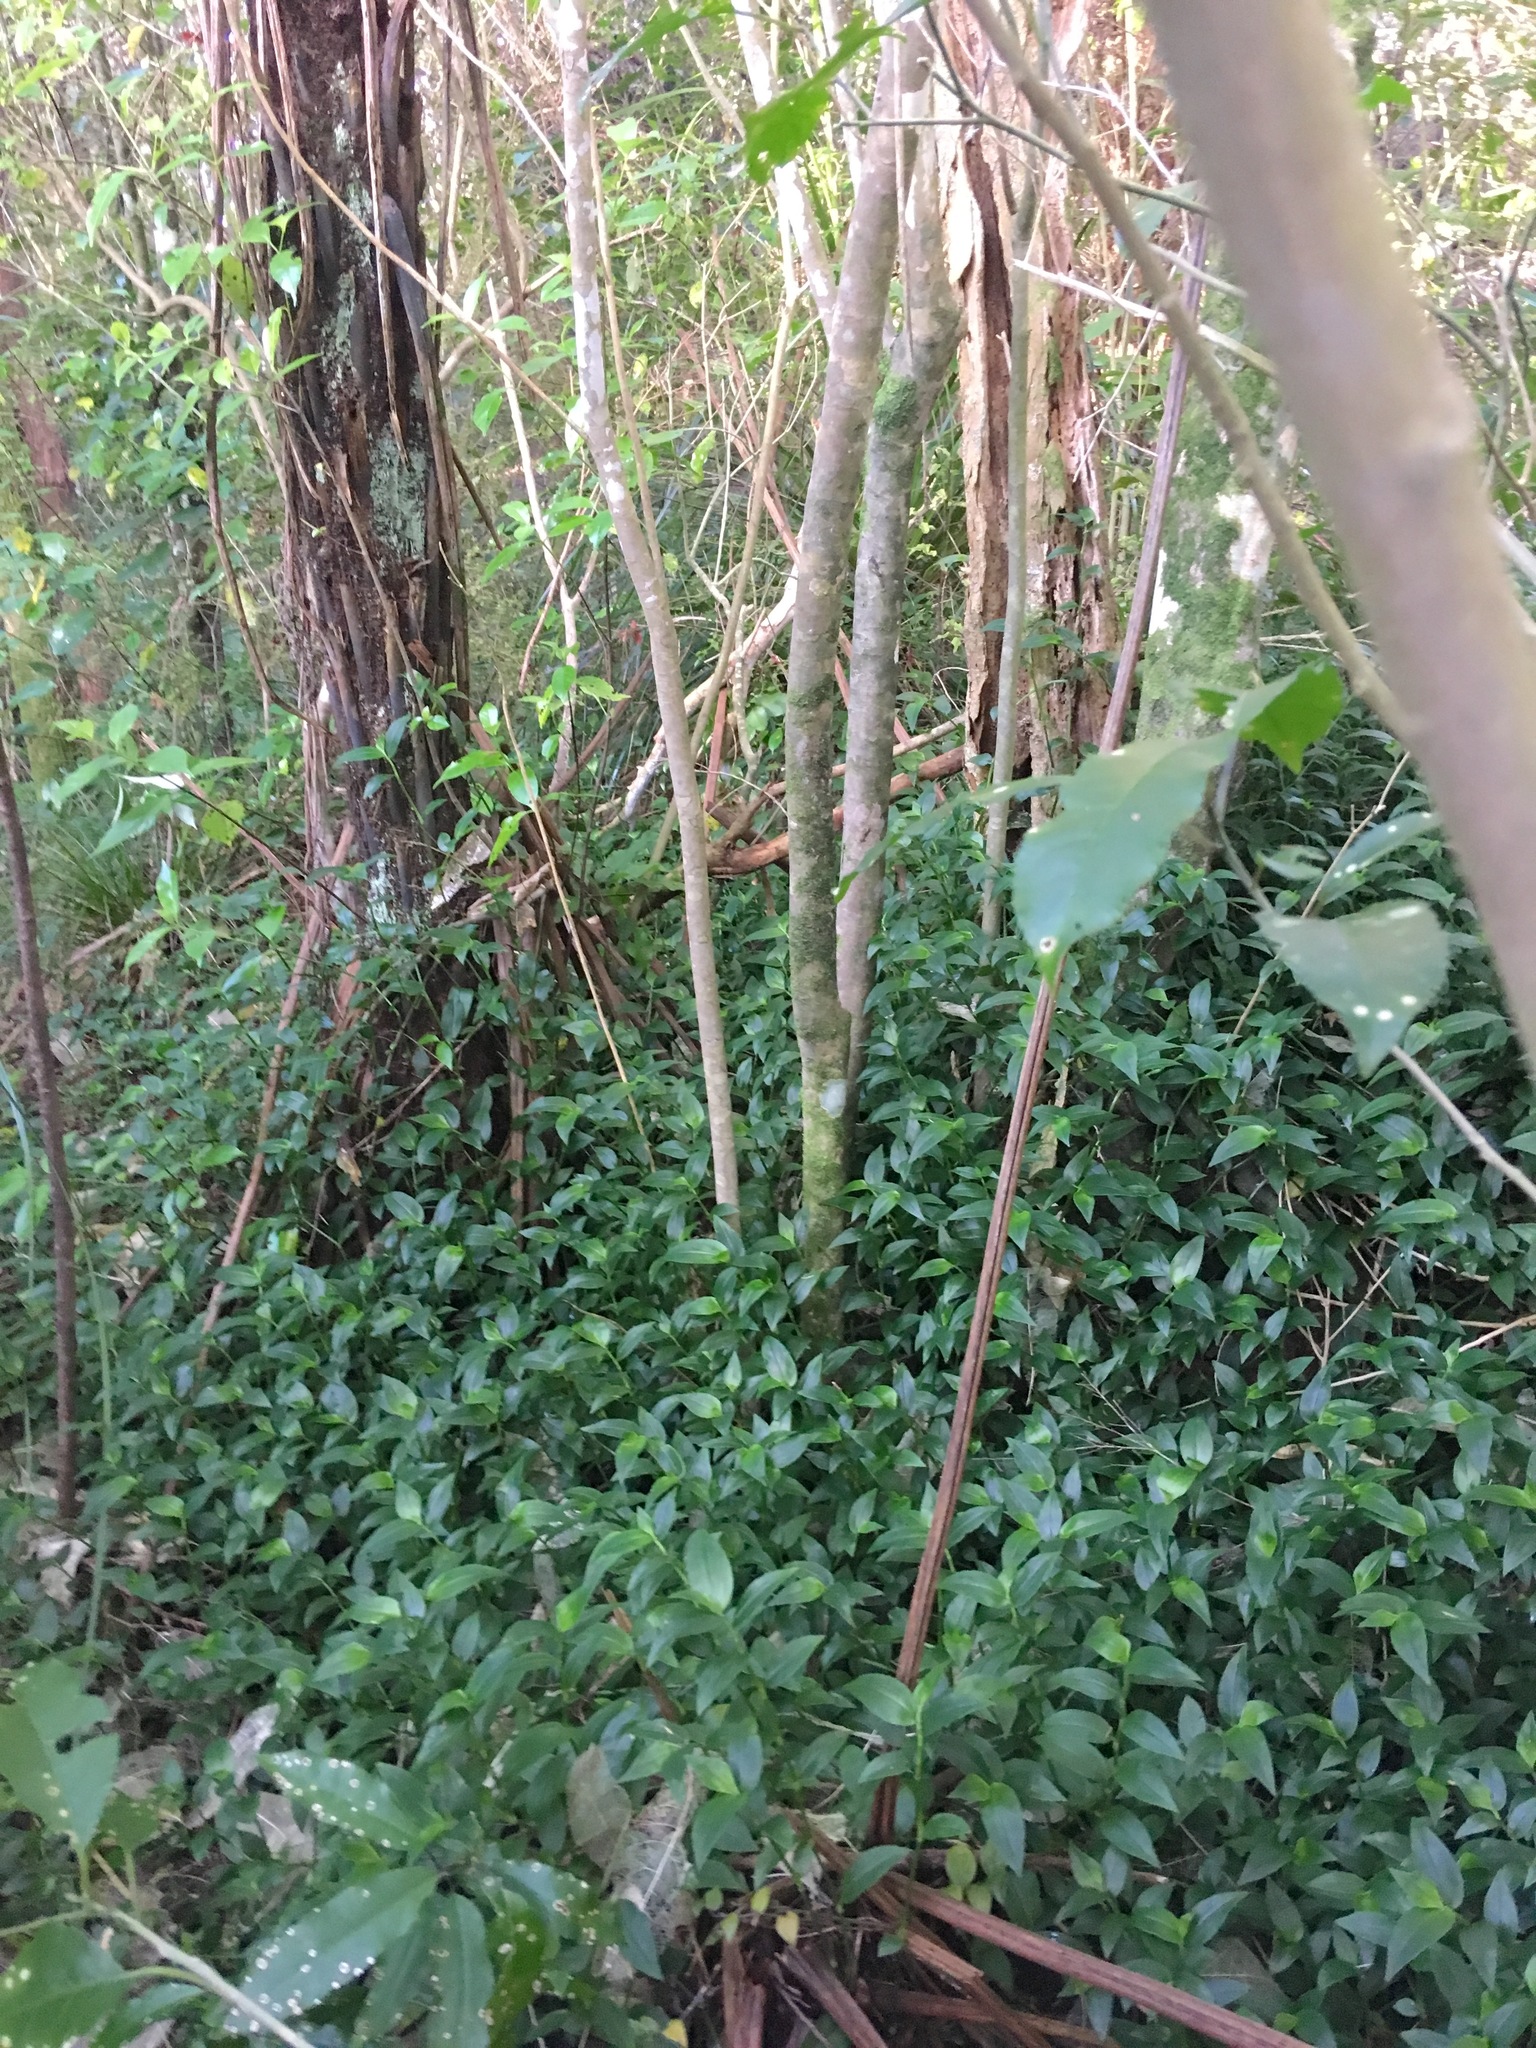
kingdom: Plantae
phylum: Tracheophyta
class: Liliopsida
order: Commelinales
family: Commelinaceae
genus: Tradescantia
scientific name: Tradescantia fluminensis
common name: Wandering-jew
